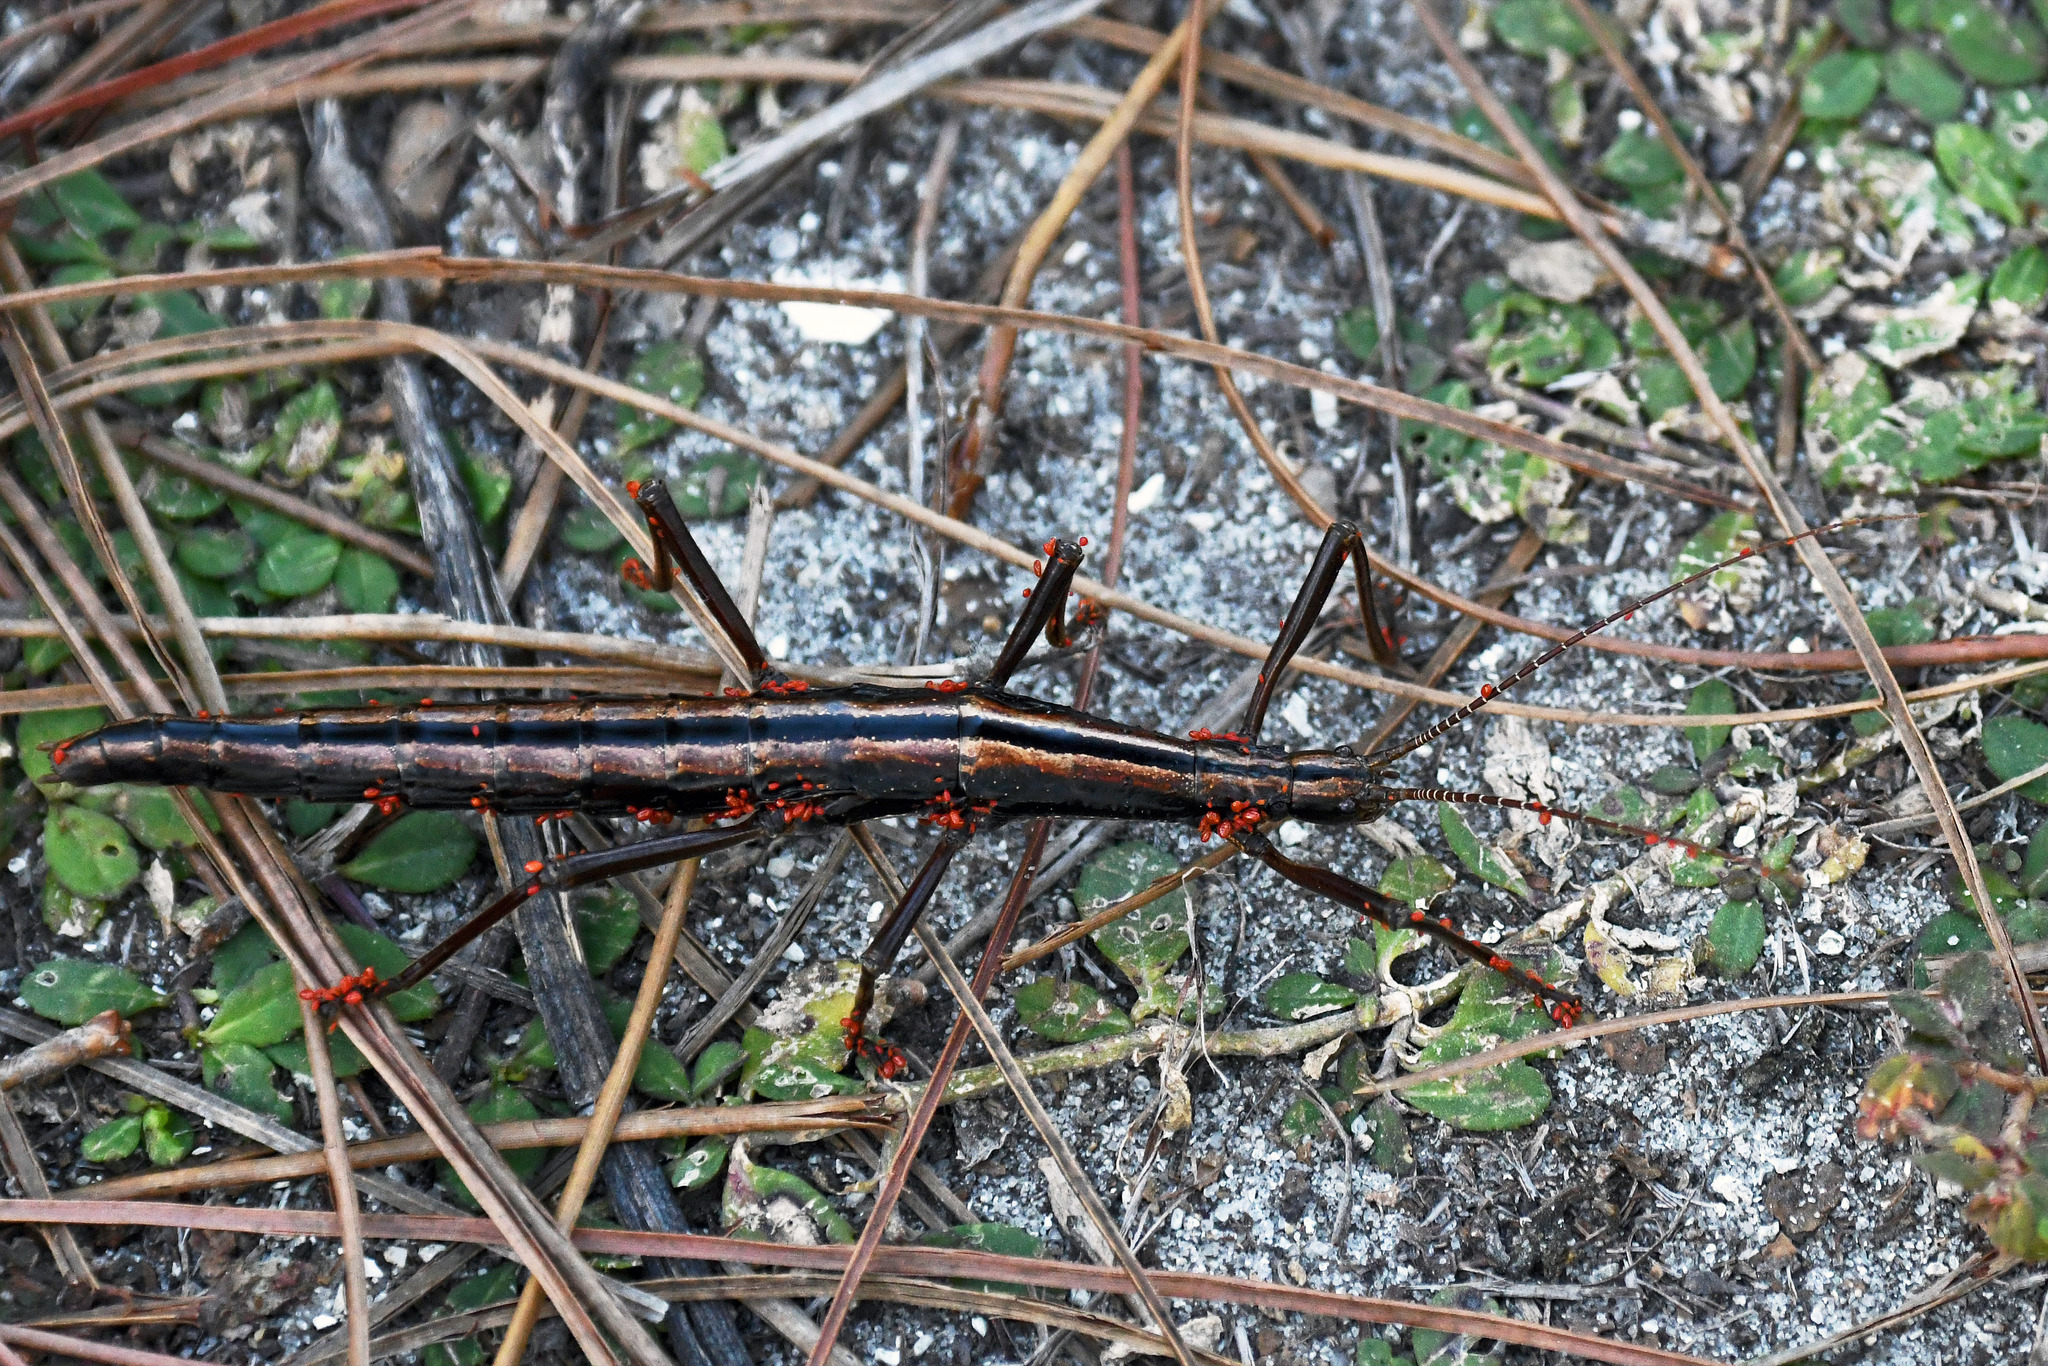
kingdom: Animalia
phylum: Arthropoda
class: Insecta
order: Phasmida
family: Pseudophasmatidae
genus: Anisomorpha
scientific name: Anisomorpha buprestoides
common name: Florida stick insect
